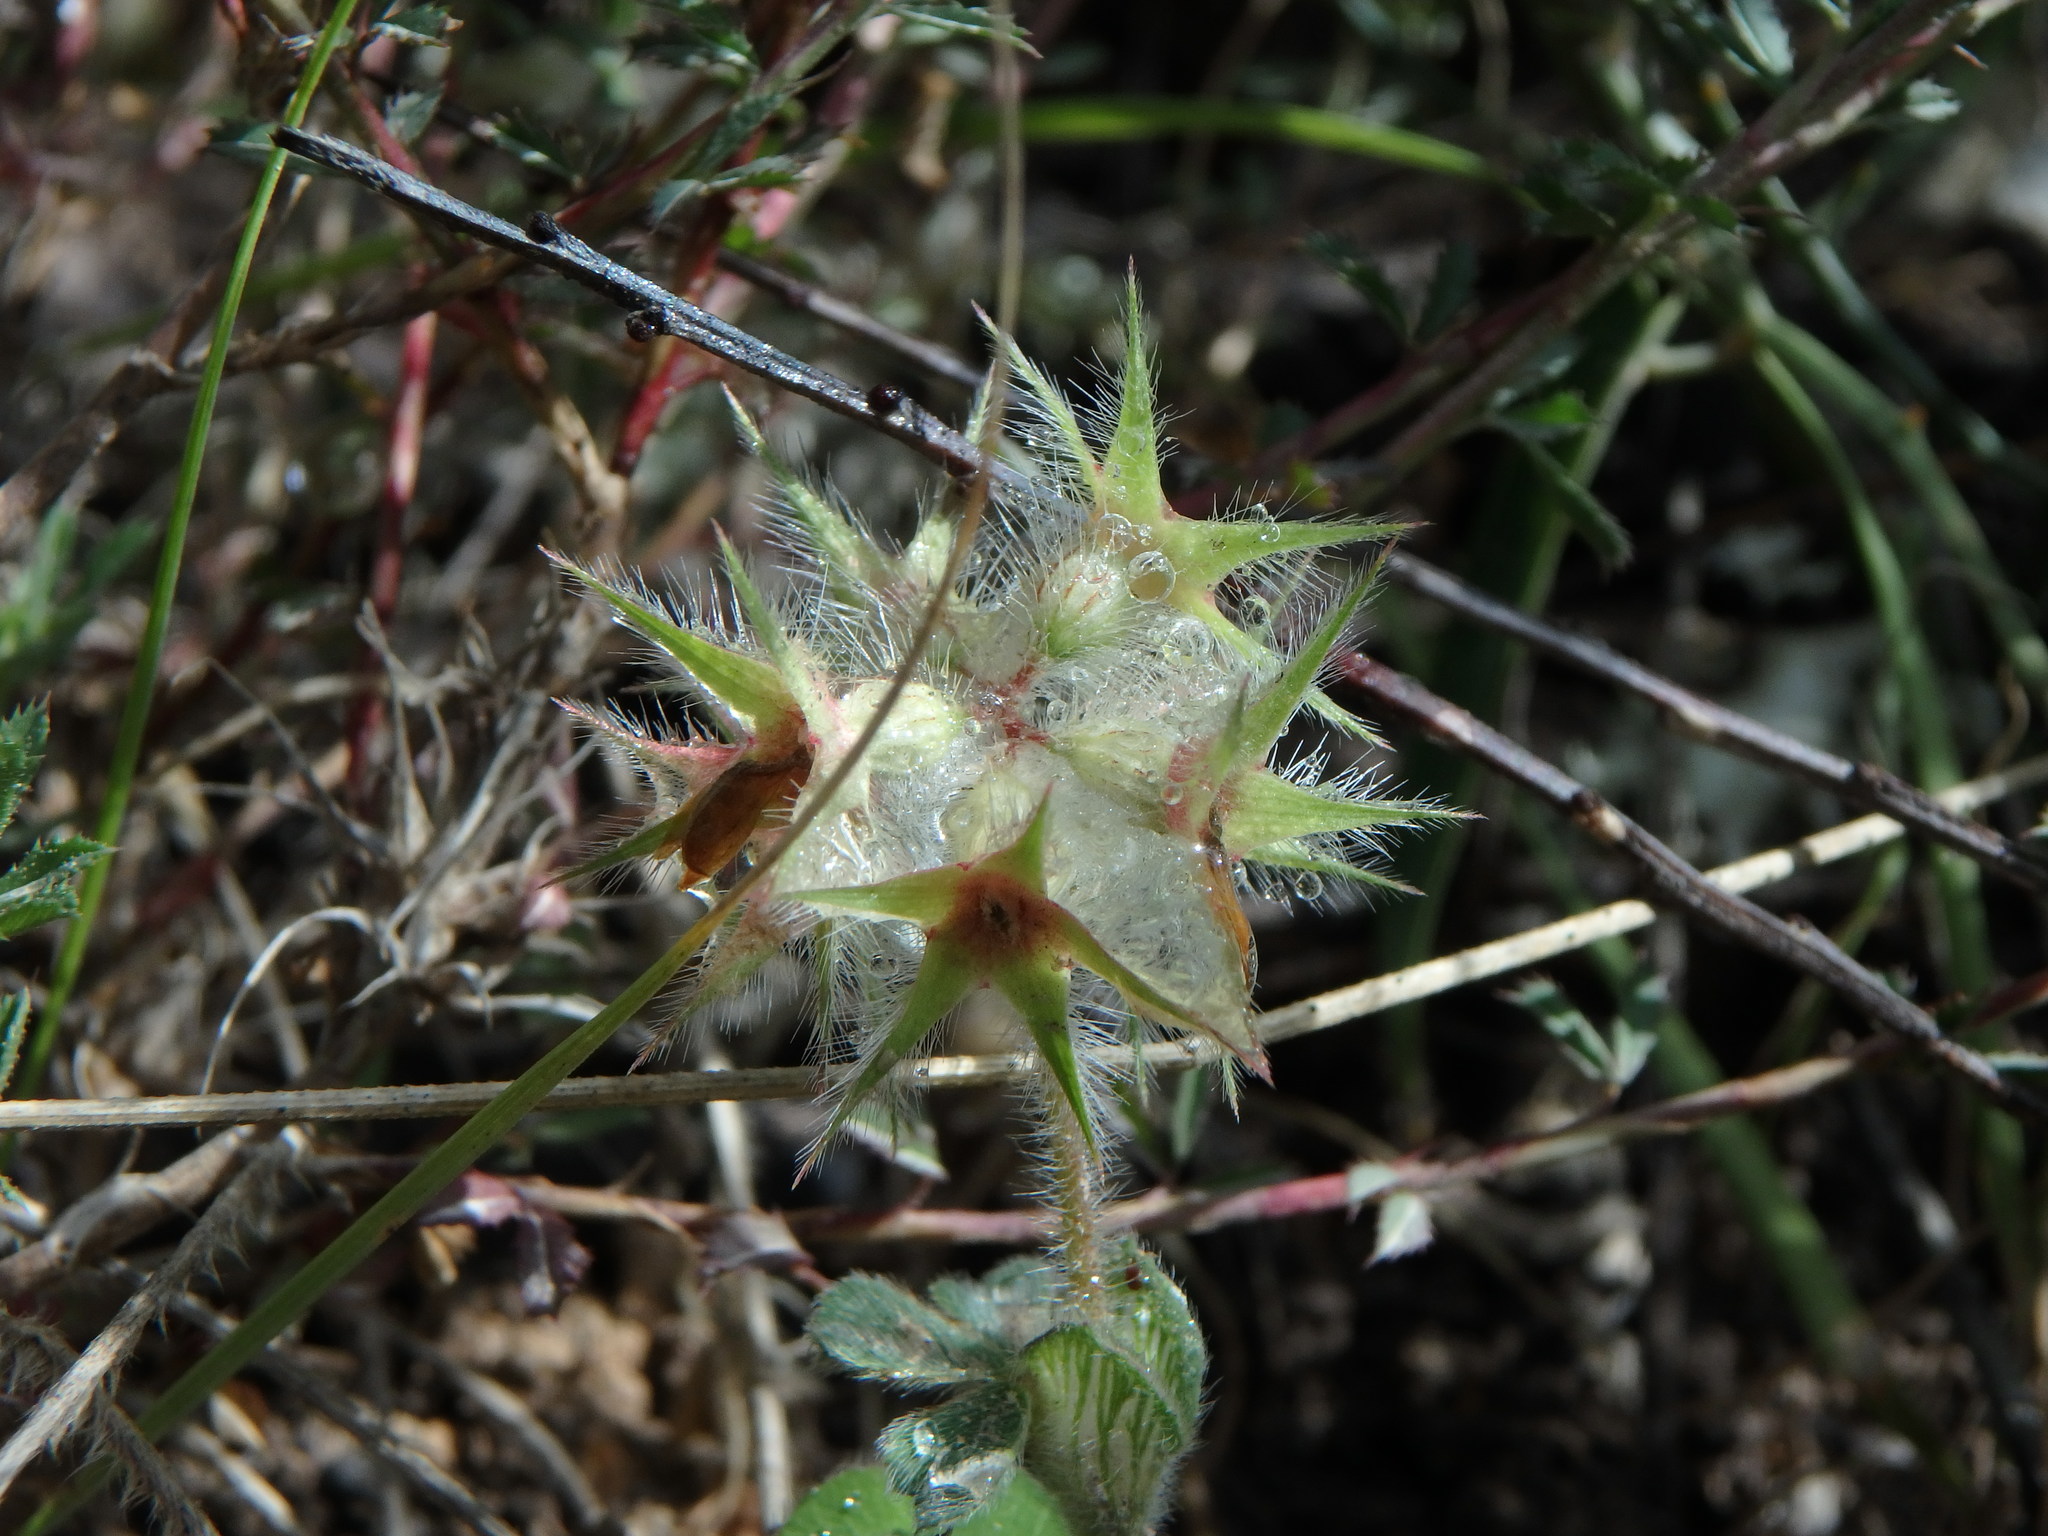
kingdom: Plantae
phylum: Tracheophyta
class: Magnoliopsida
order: Fabales
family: Fabaceae
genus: Trifolium
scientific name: Trifolium stellatum
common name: Starry clover
